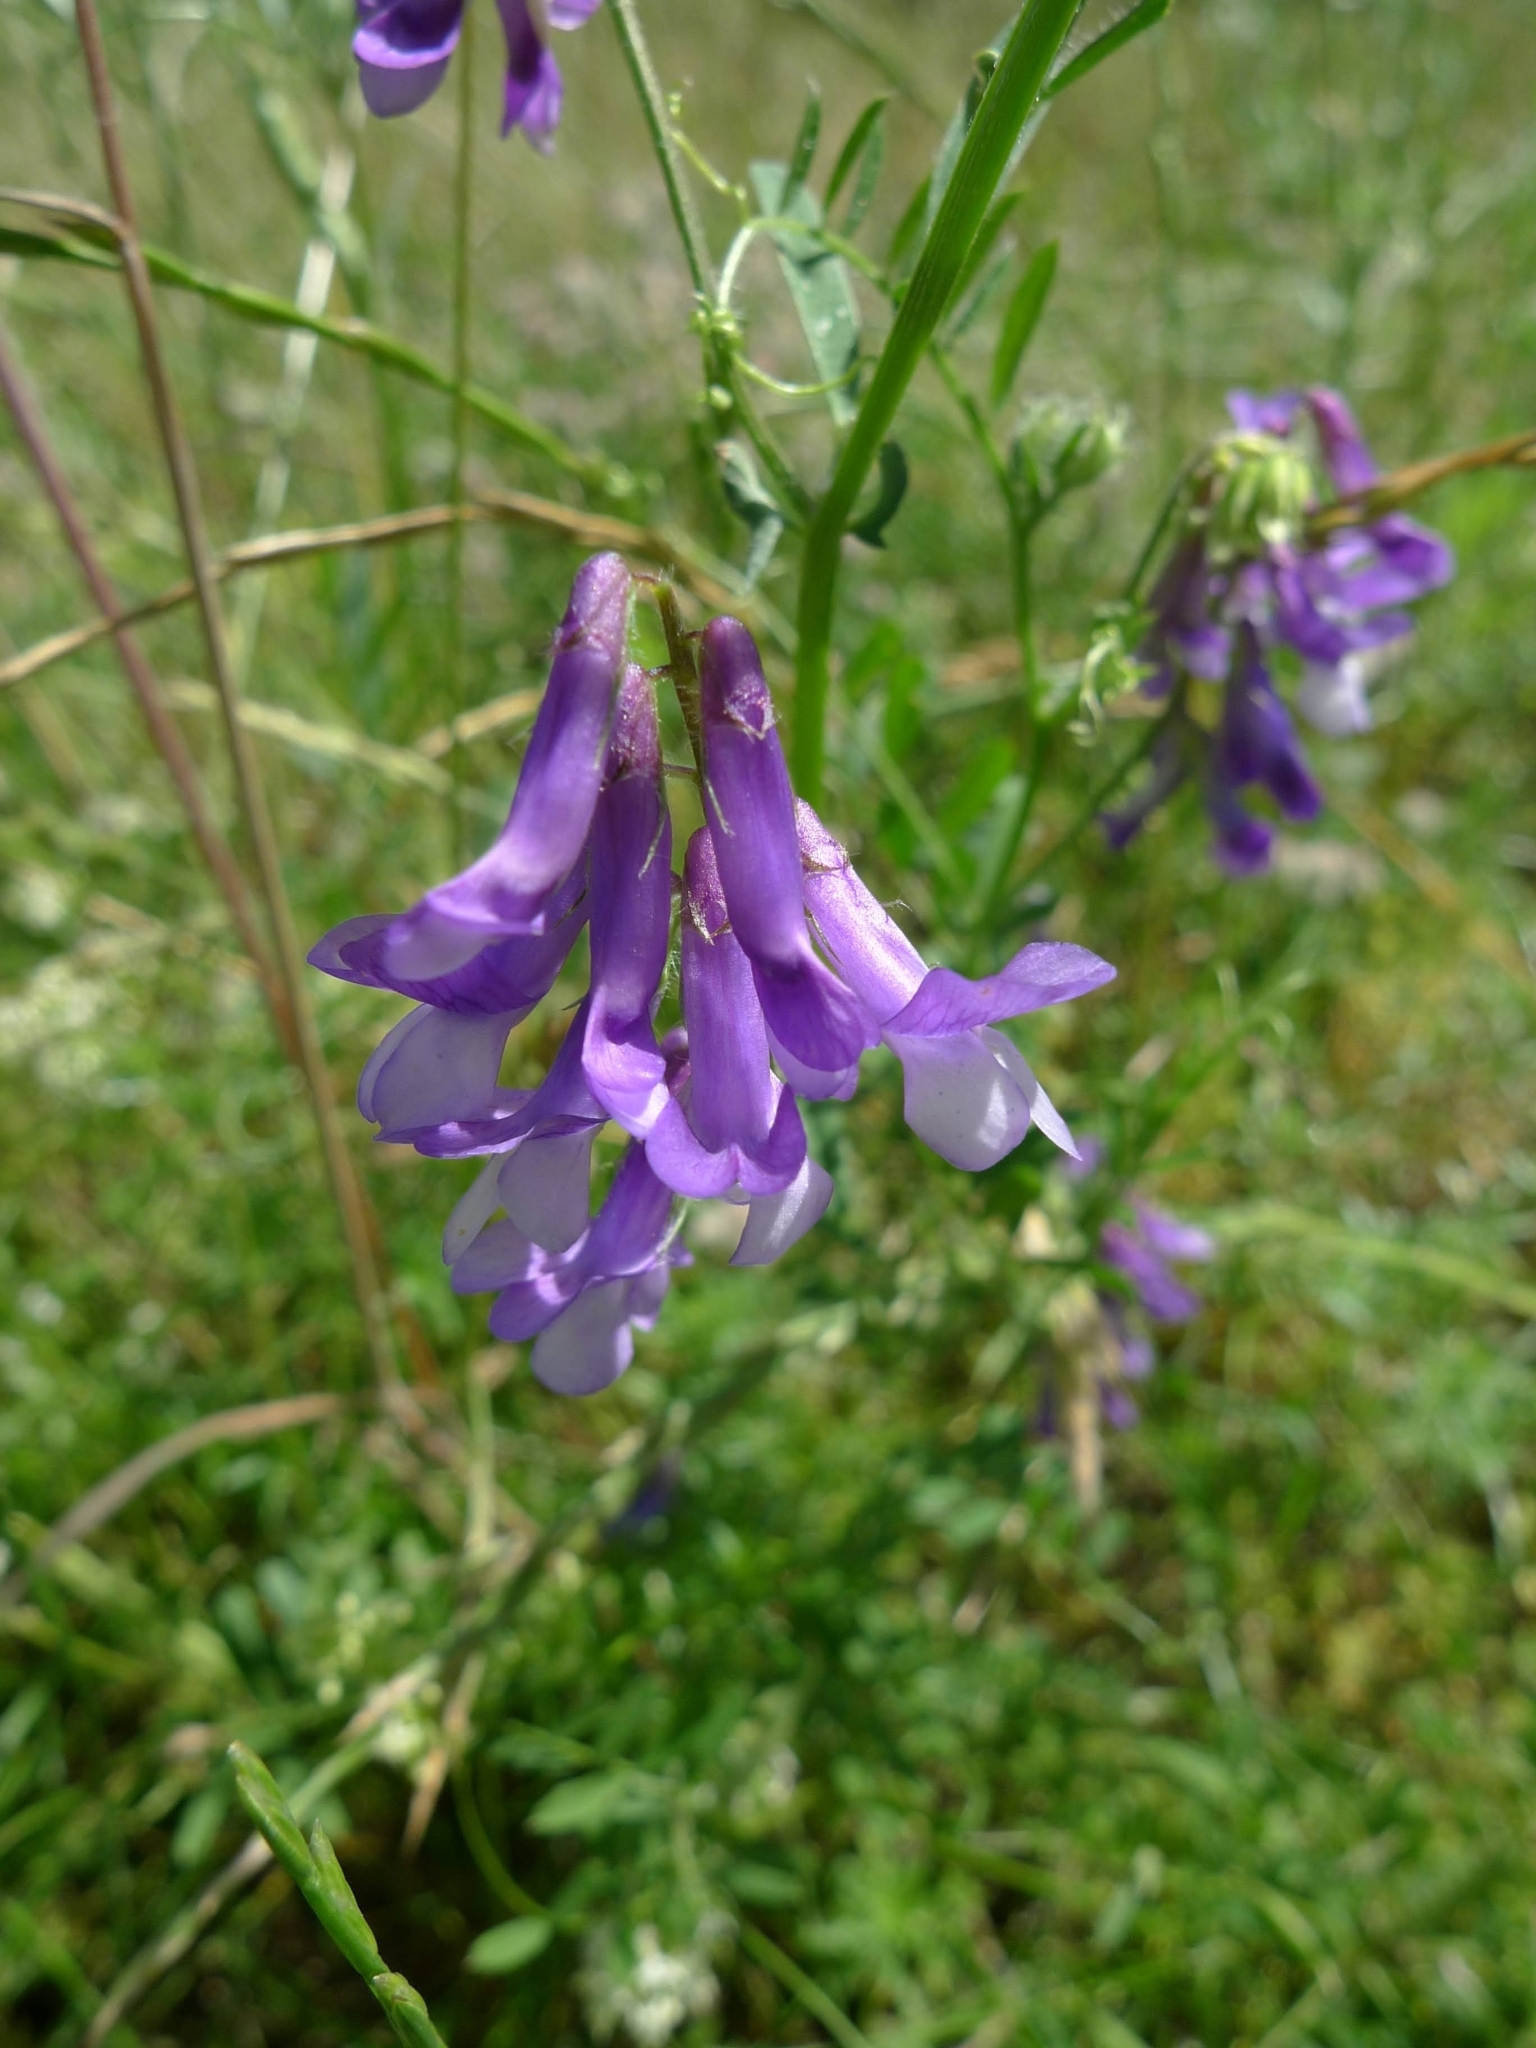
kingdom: Plantae
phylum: Tracheophyta
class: Magnoliopsida
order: Fabales
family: Fabaceae
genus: Vicia
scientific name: Vicia villosa
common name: Fodder vetch
